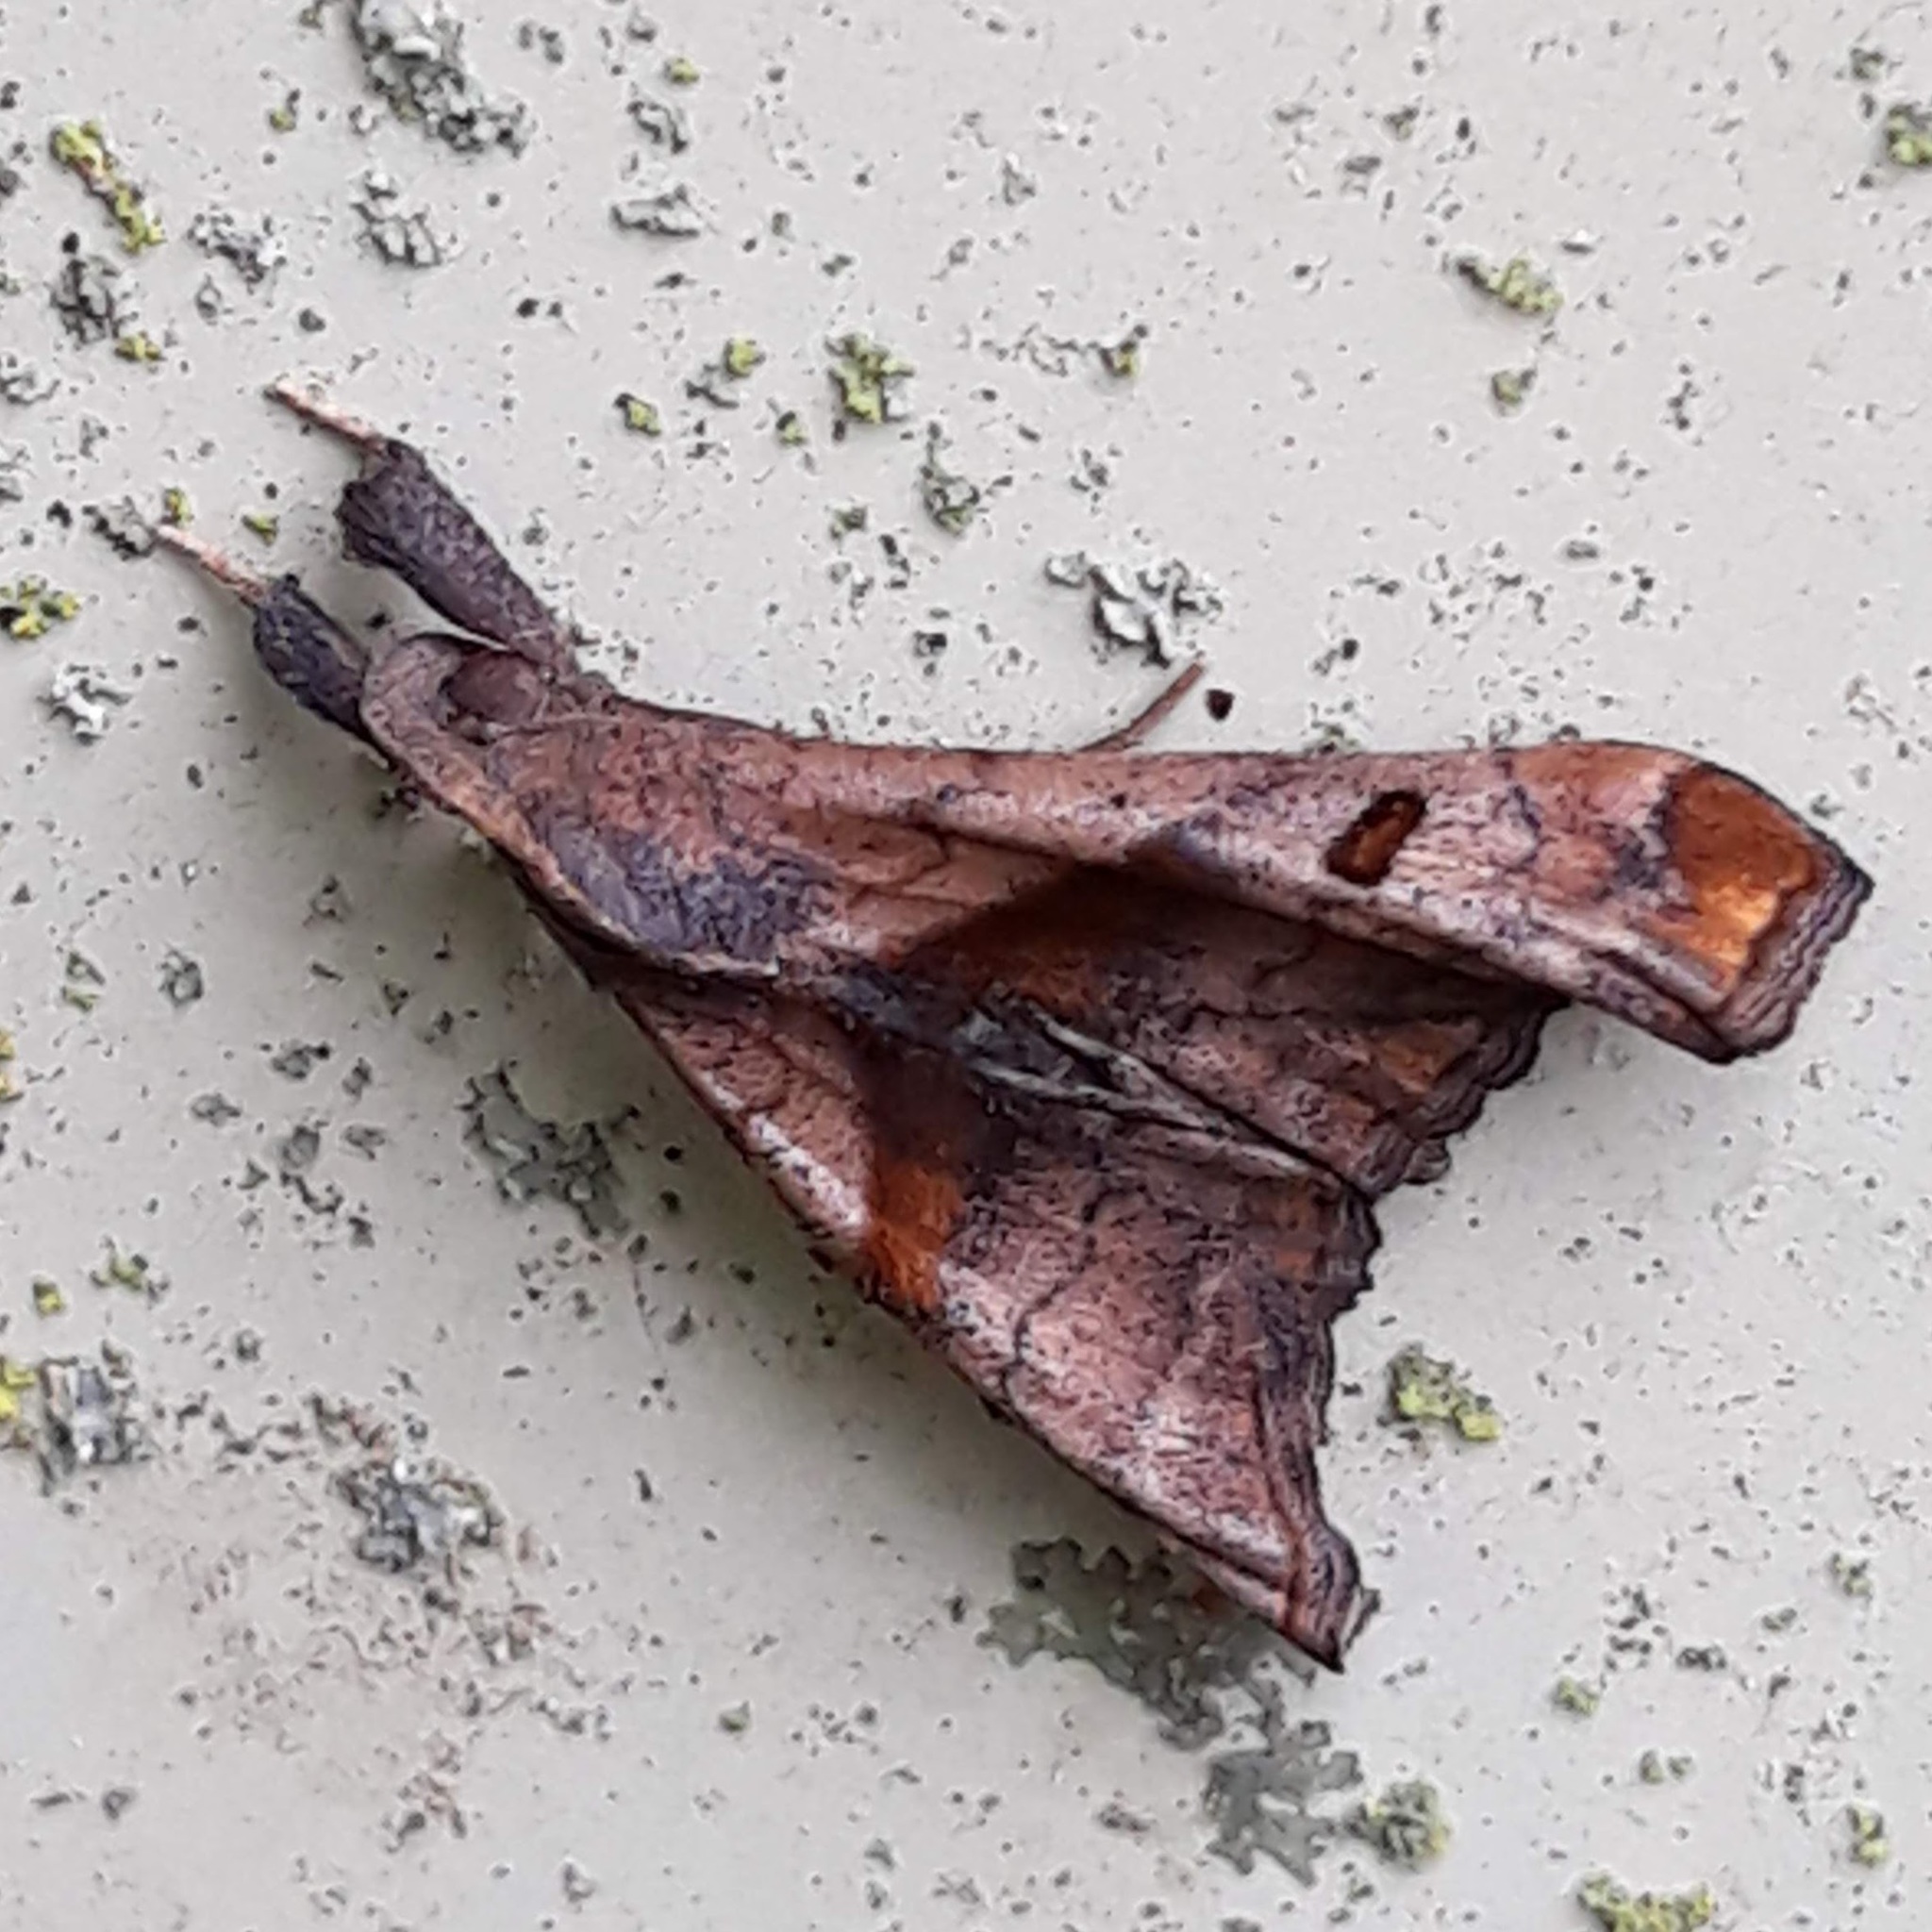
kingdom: Animalia
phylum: Arthropoda
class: Insecta
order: Lepidoptera
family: Erebidae
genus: Palthis
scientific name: Palthis angulalis
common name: Dark-spotted palthis moth
